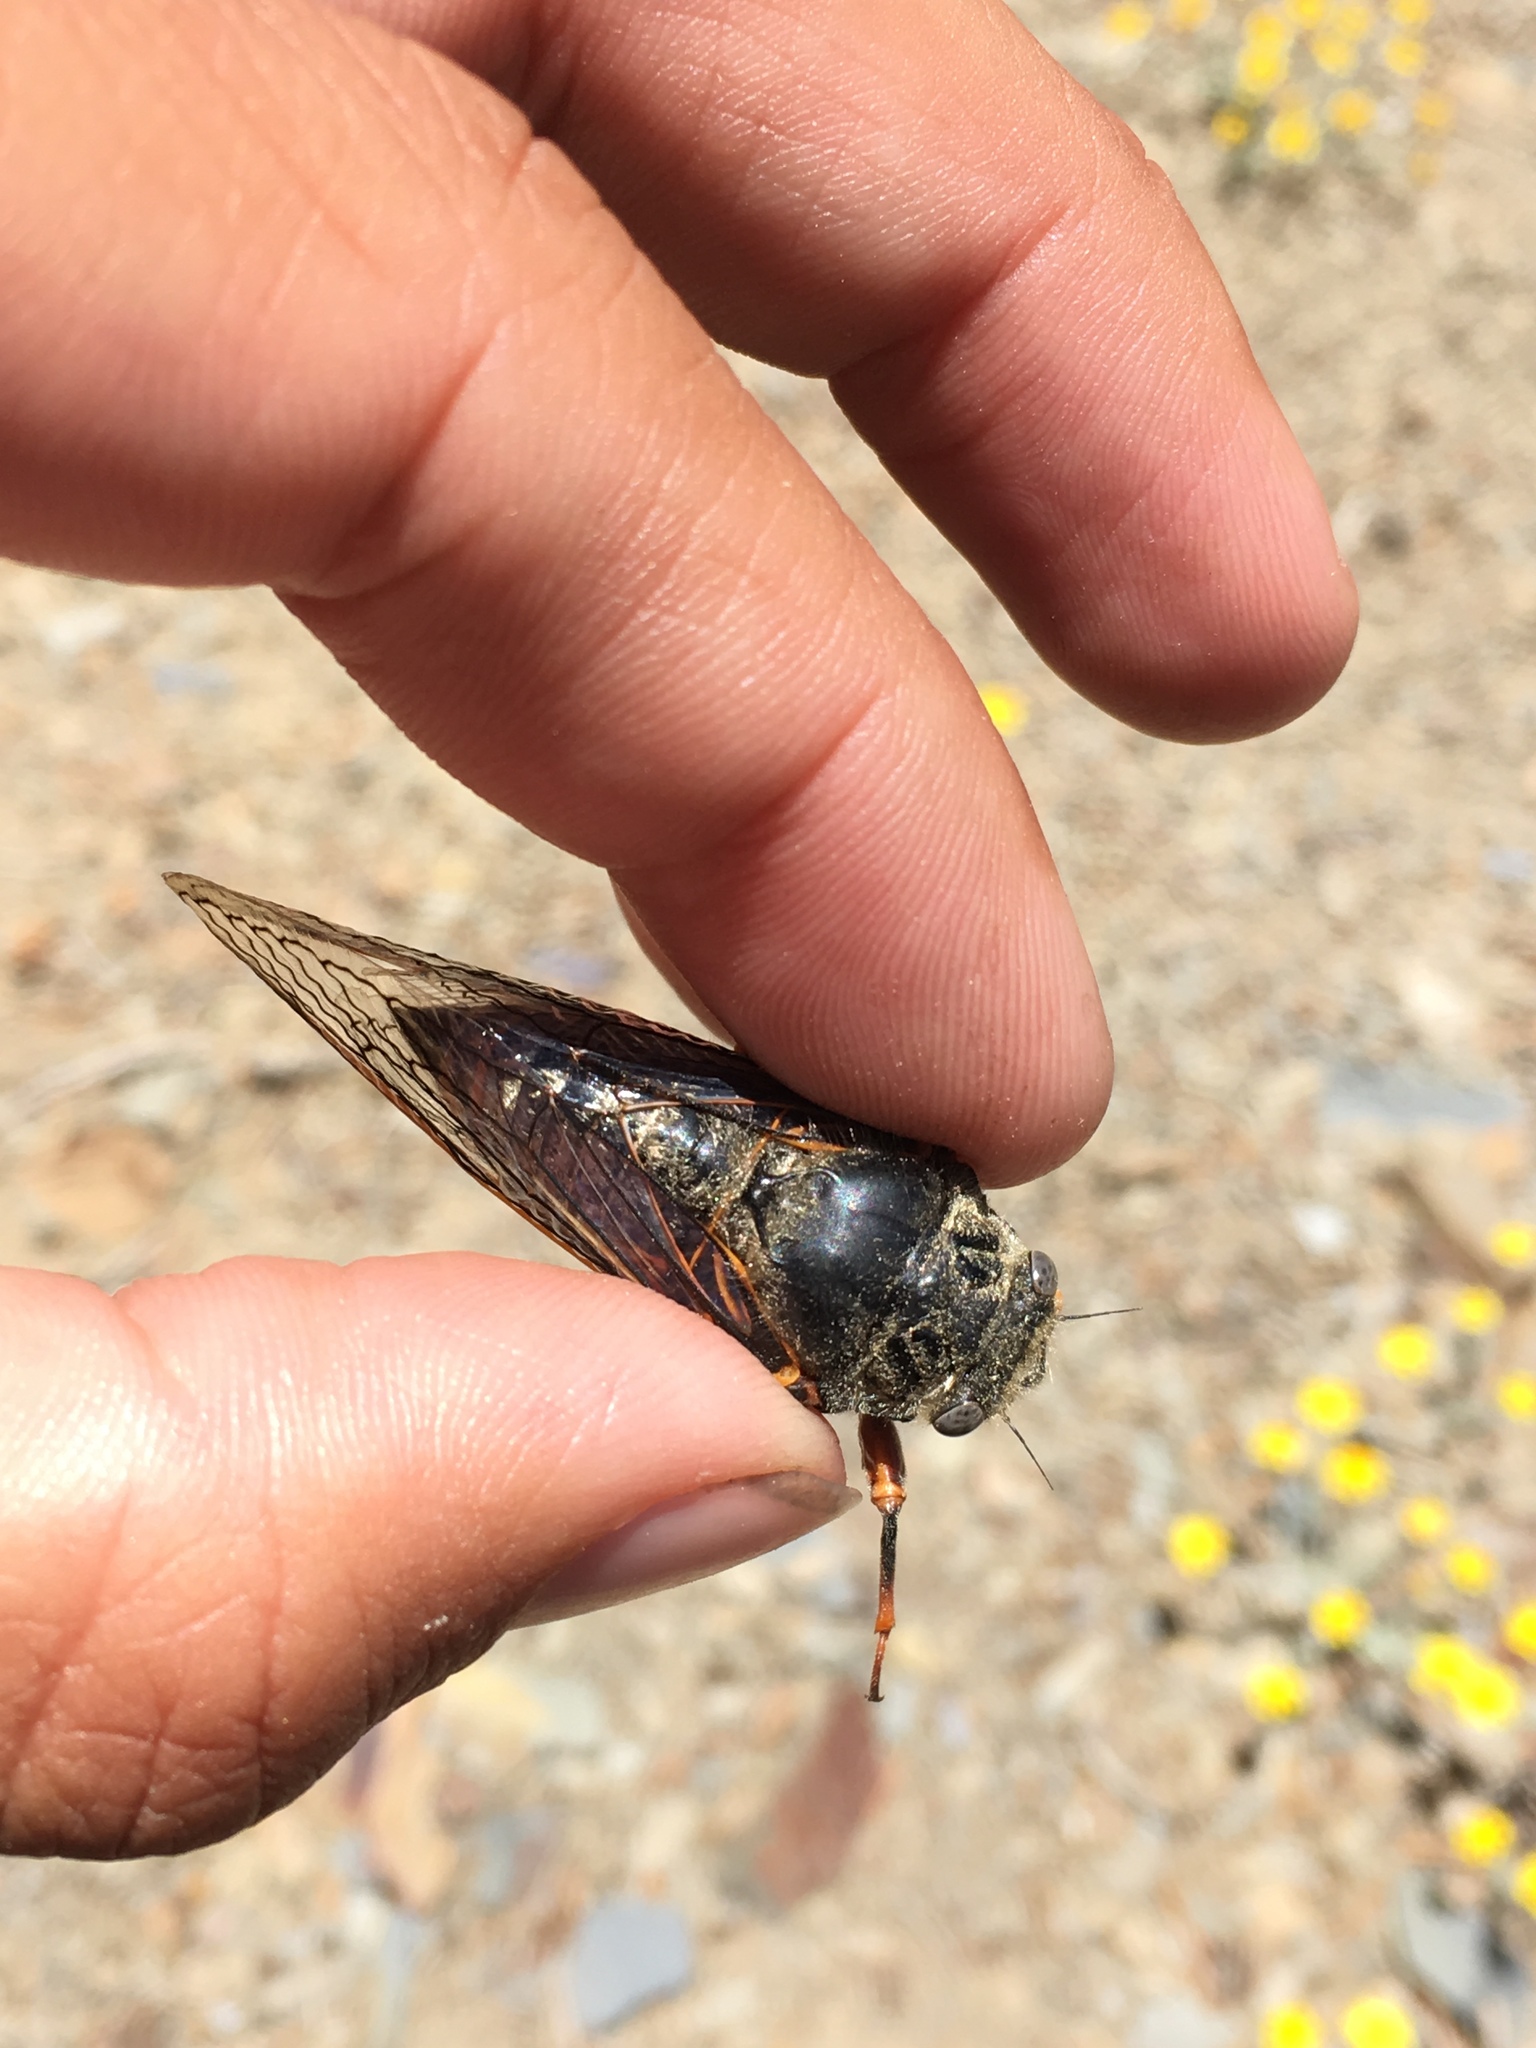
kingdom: Animalia
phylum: Arthropoda
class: Insecta
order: Hemiptera
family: Cicadidae
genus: Okanagana
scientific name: Okanagana magnifica
